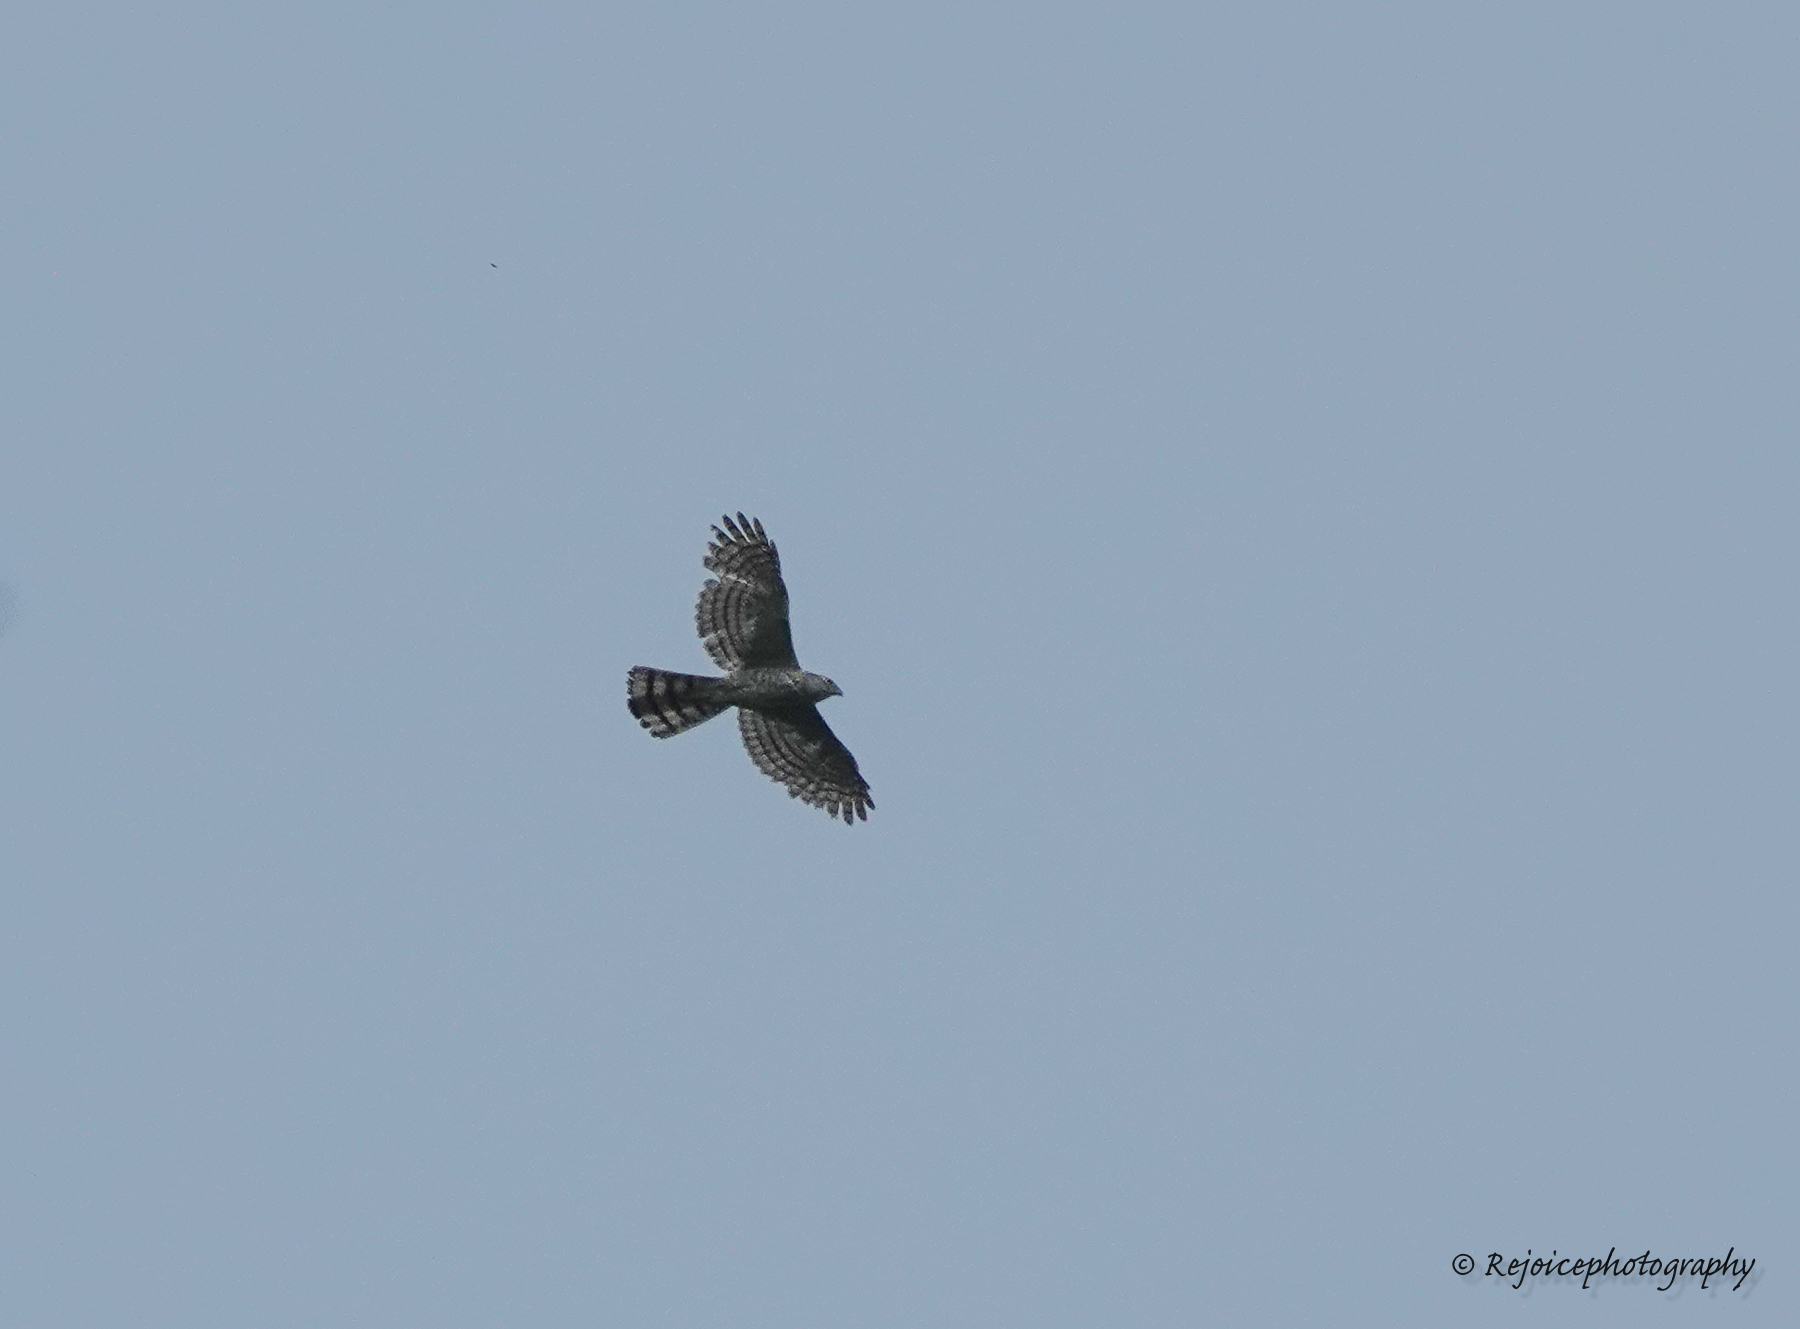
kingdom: Animalia
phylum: Chordata
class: Aves
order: Accipitriformes
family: Accipitridae
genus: Accipiter
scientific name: Accipiter badius
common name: Shikra
